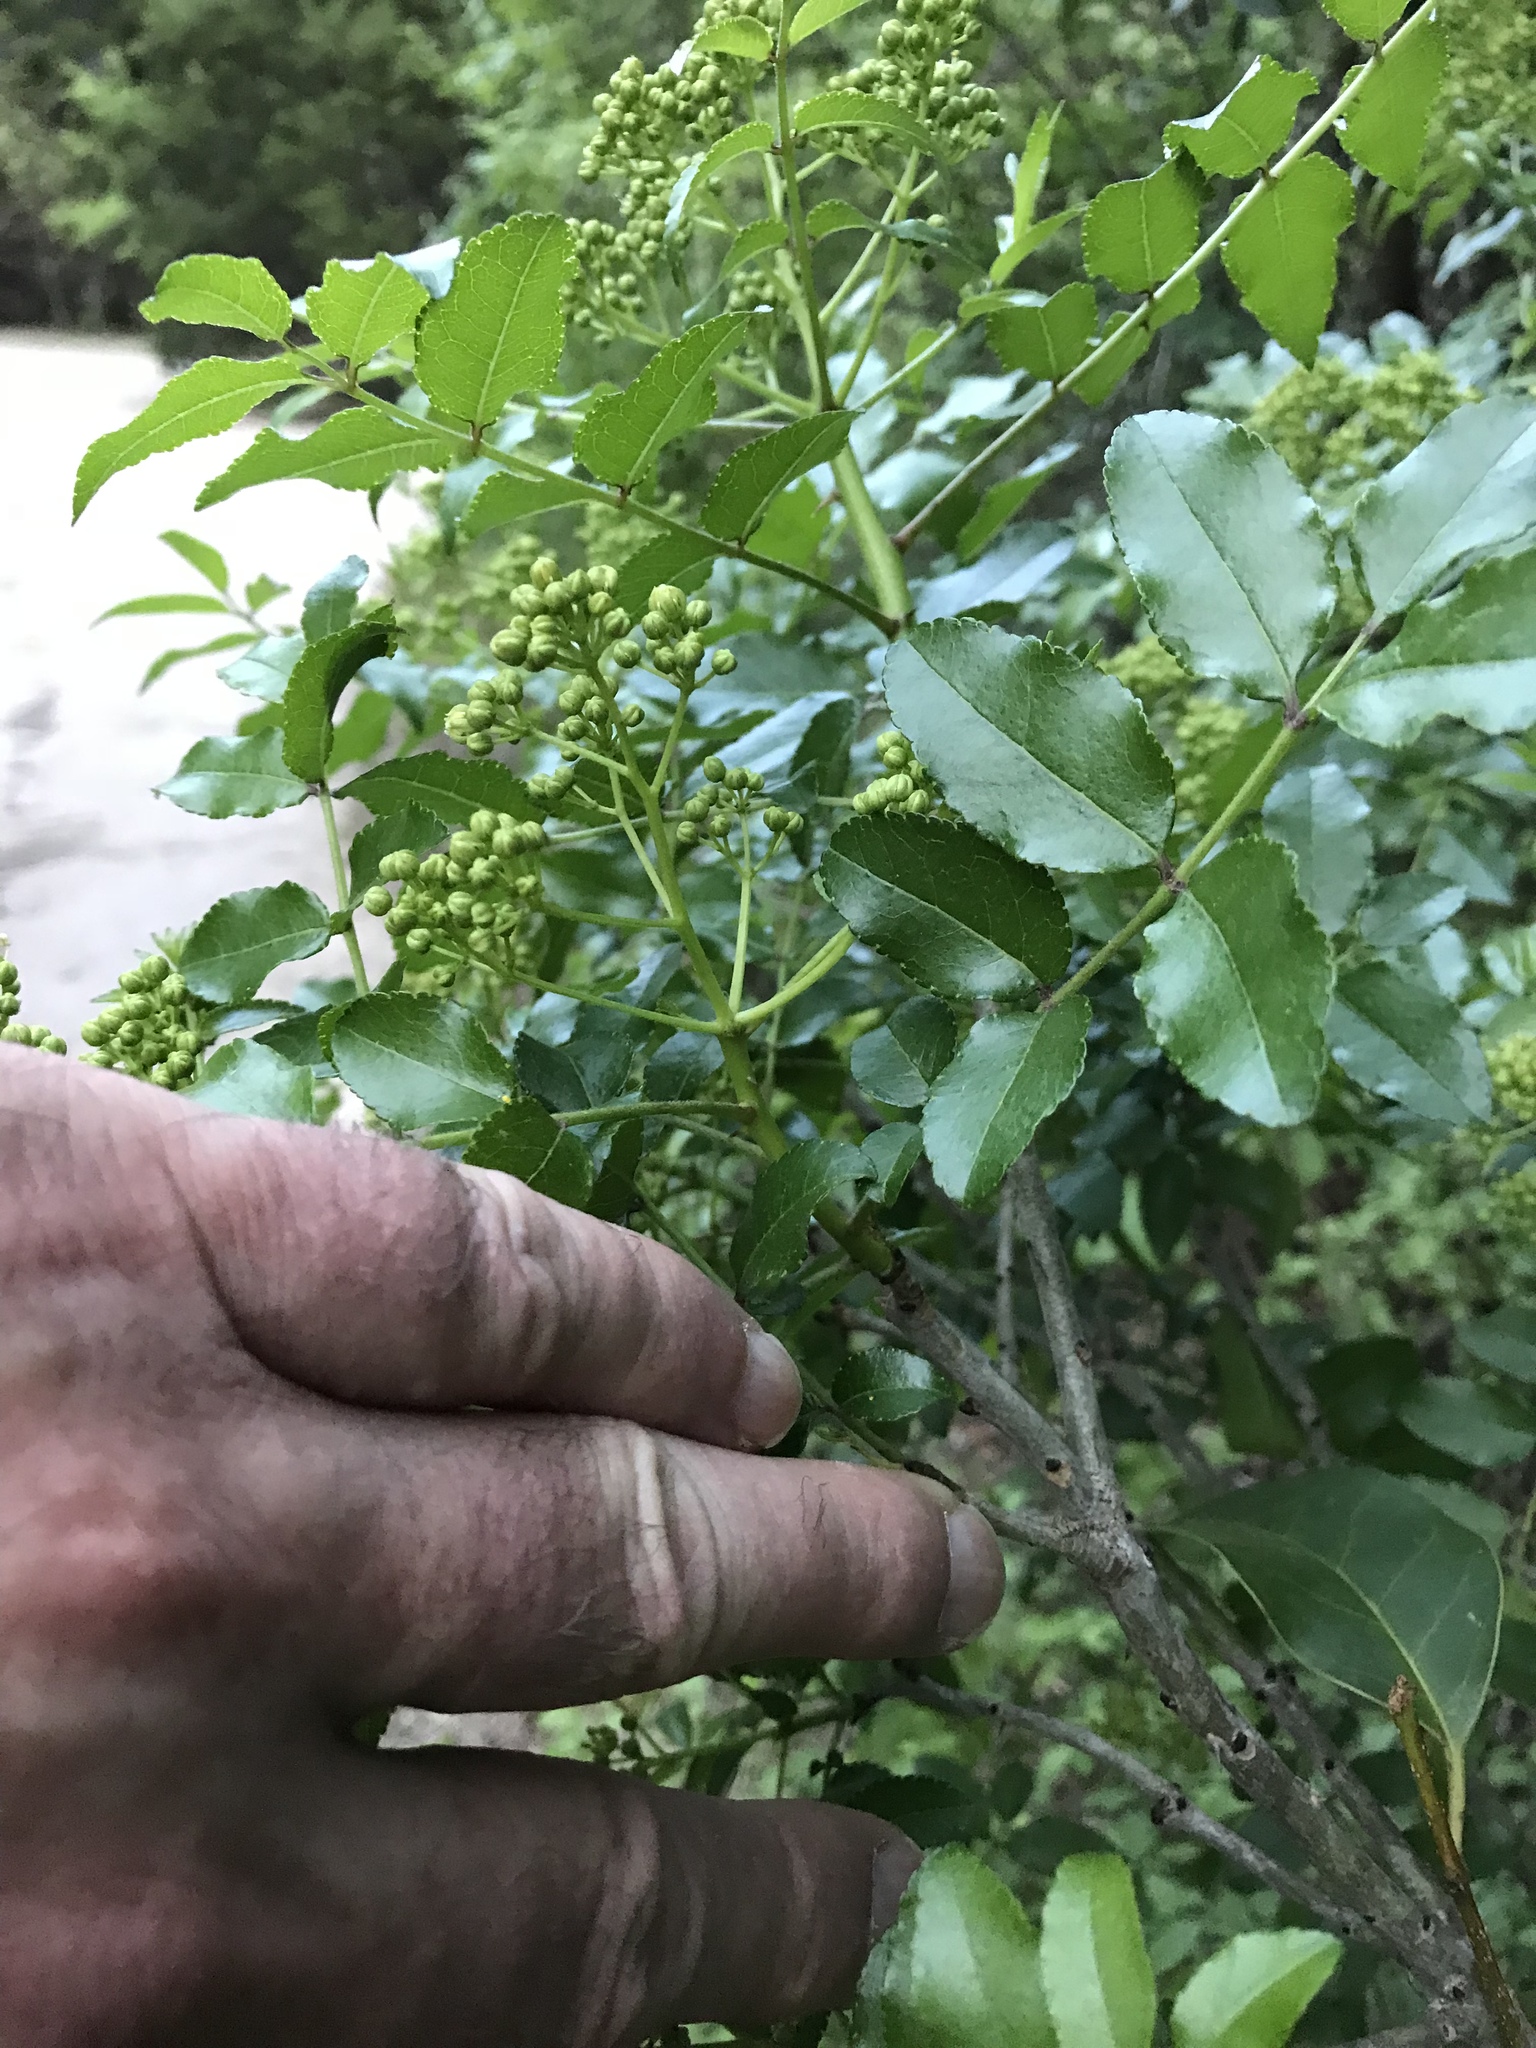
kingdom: Plantae
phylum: Tracheophyta
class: Magnoliopsida
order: Sapindales
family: Rutaceae
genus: Zanthoxylum
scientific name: Zanthoxylum clava-herculis
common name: Hercules'-club
